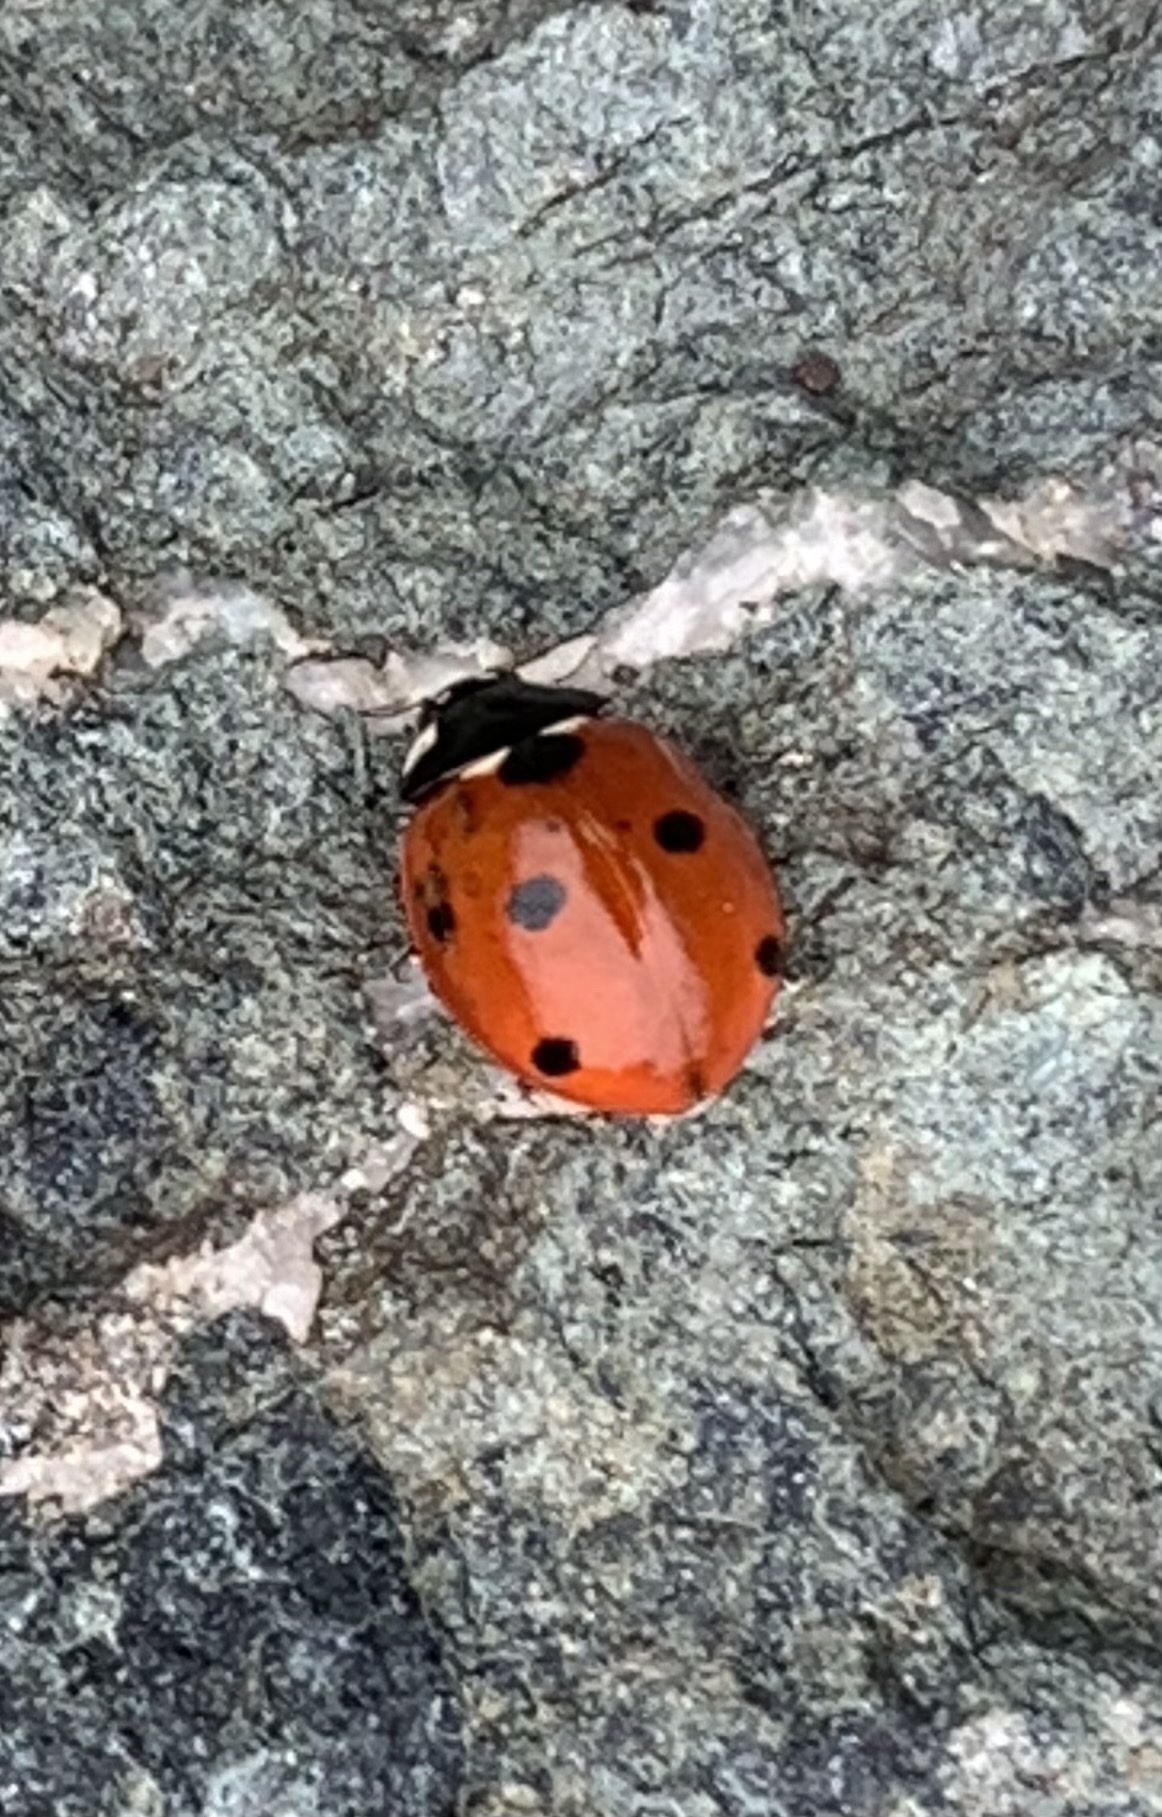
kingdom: Animalia
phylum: Arthropoda
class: Insecta
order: Coleoptera
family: Coccinellidae
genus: Coccinella
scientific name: Coccinella septempunctata
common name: Sevenspotted lady beetle
